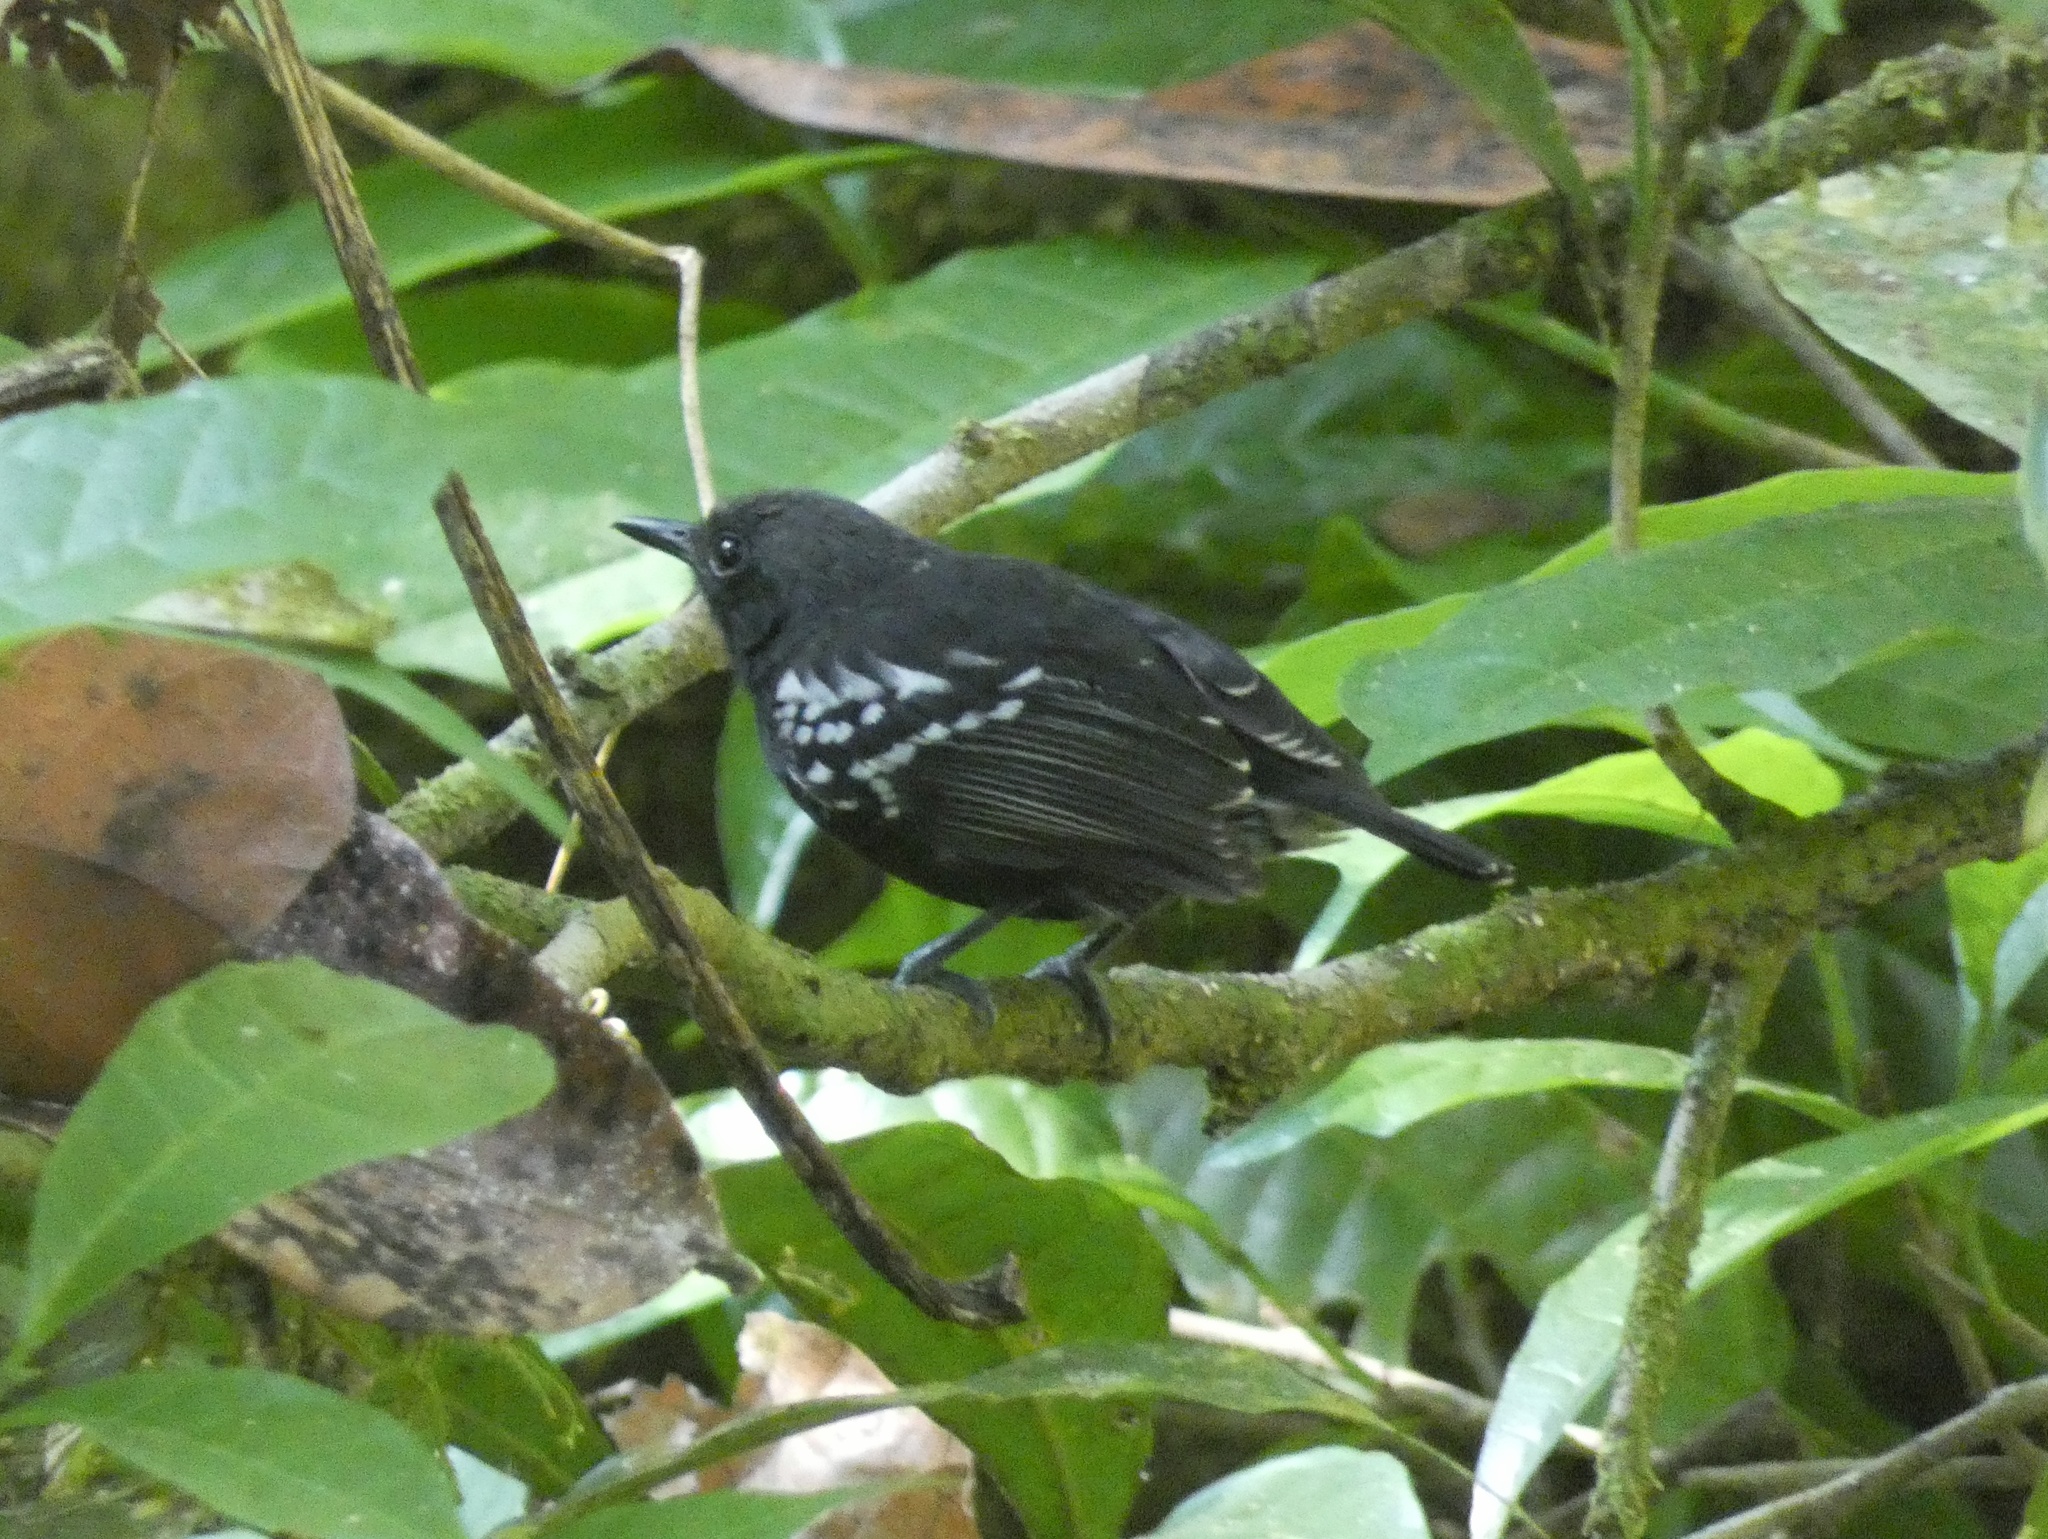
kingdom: Animalia
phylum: Chordata
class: Aves
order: Passeriformes
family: Thamnophilidae
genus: Myrmotherula
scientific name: Myrmotherula axillaris
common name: White-flanked antwren
